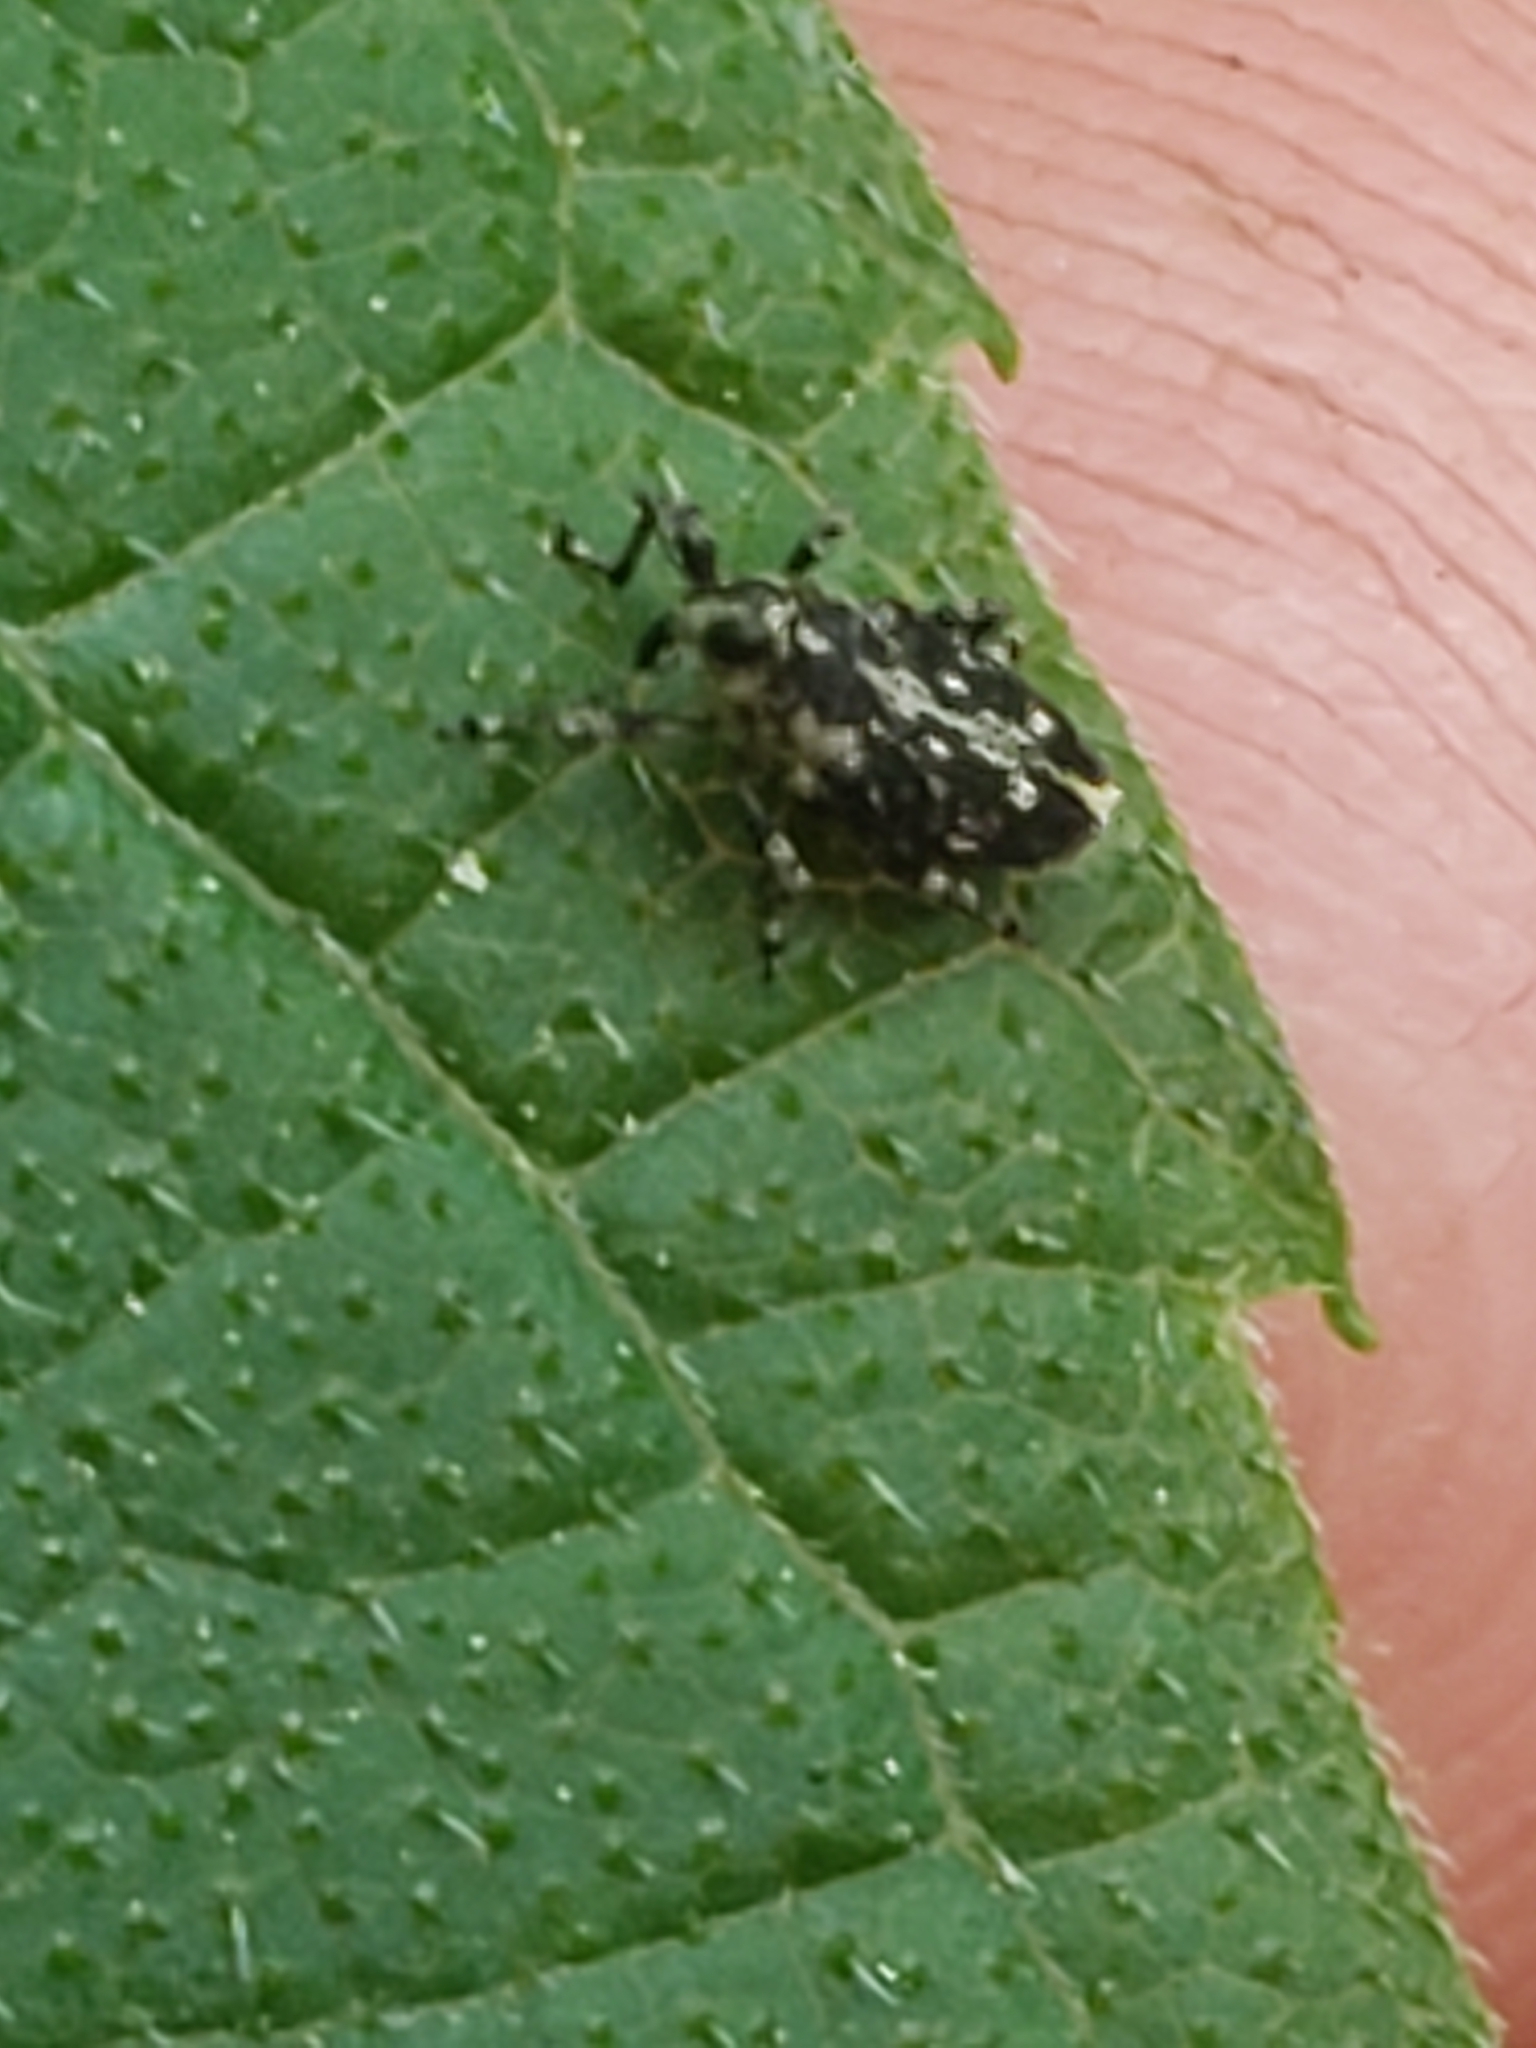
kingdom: Animalia
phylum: Arthropoda
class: Insecta
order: Coleoptera
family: Curculionidae
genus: Cylindrocopturus
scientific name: Cylindrocopturus quercus
